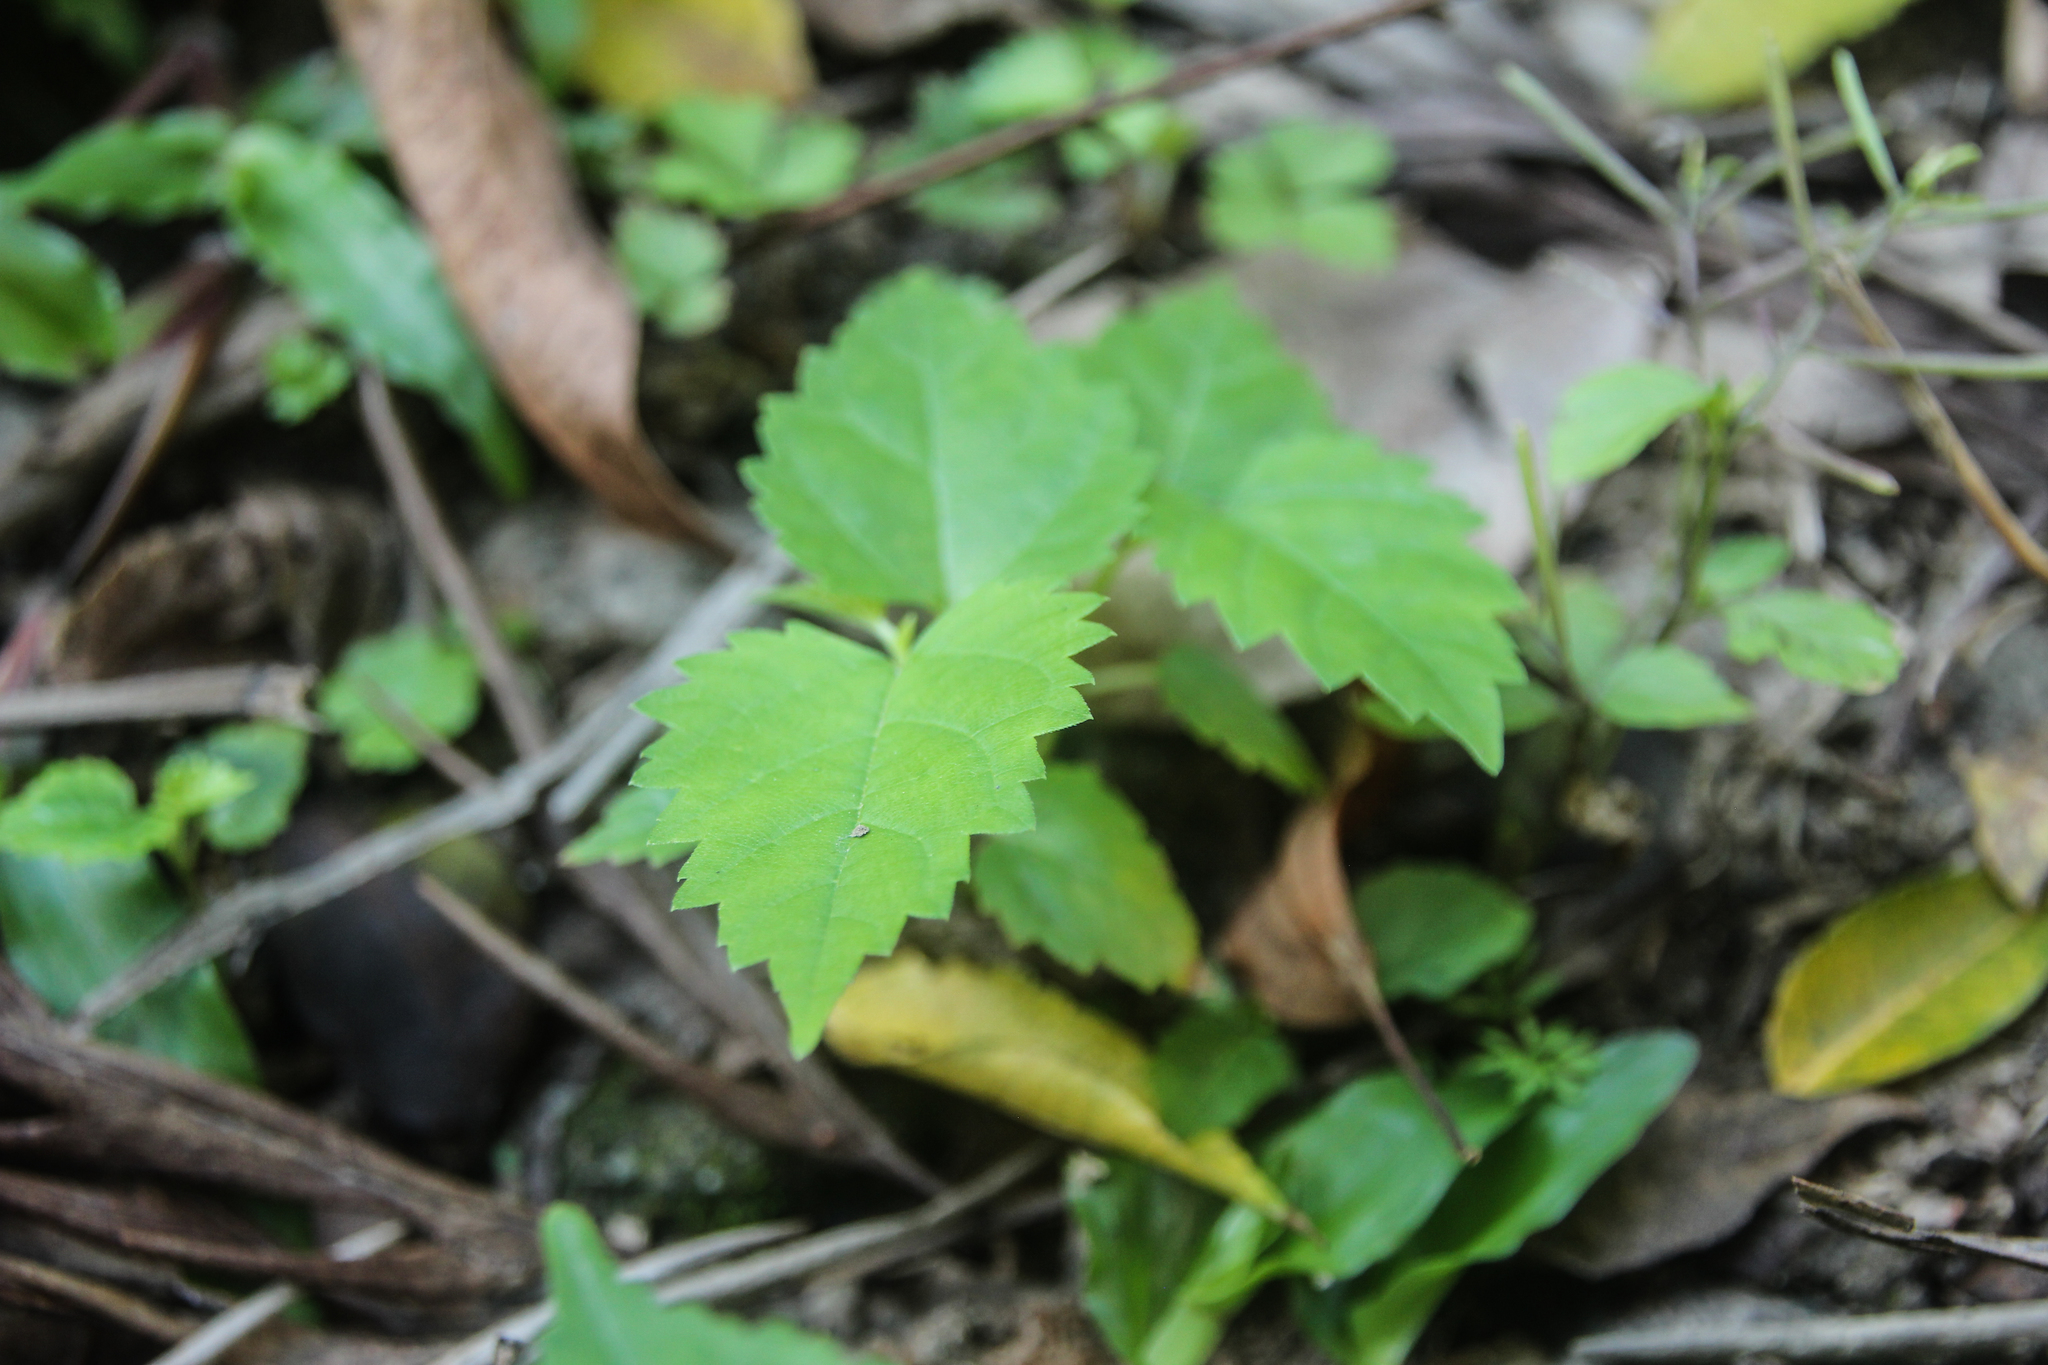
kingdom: Plantae
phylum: Tracheophyta
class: Magnoliopsida
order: Rosales
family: Moraceae
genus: Morus
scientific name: Morus indica
